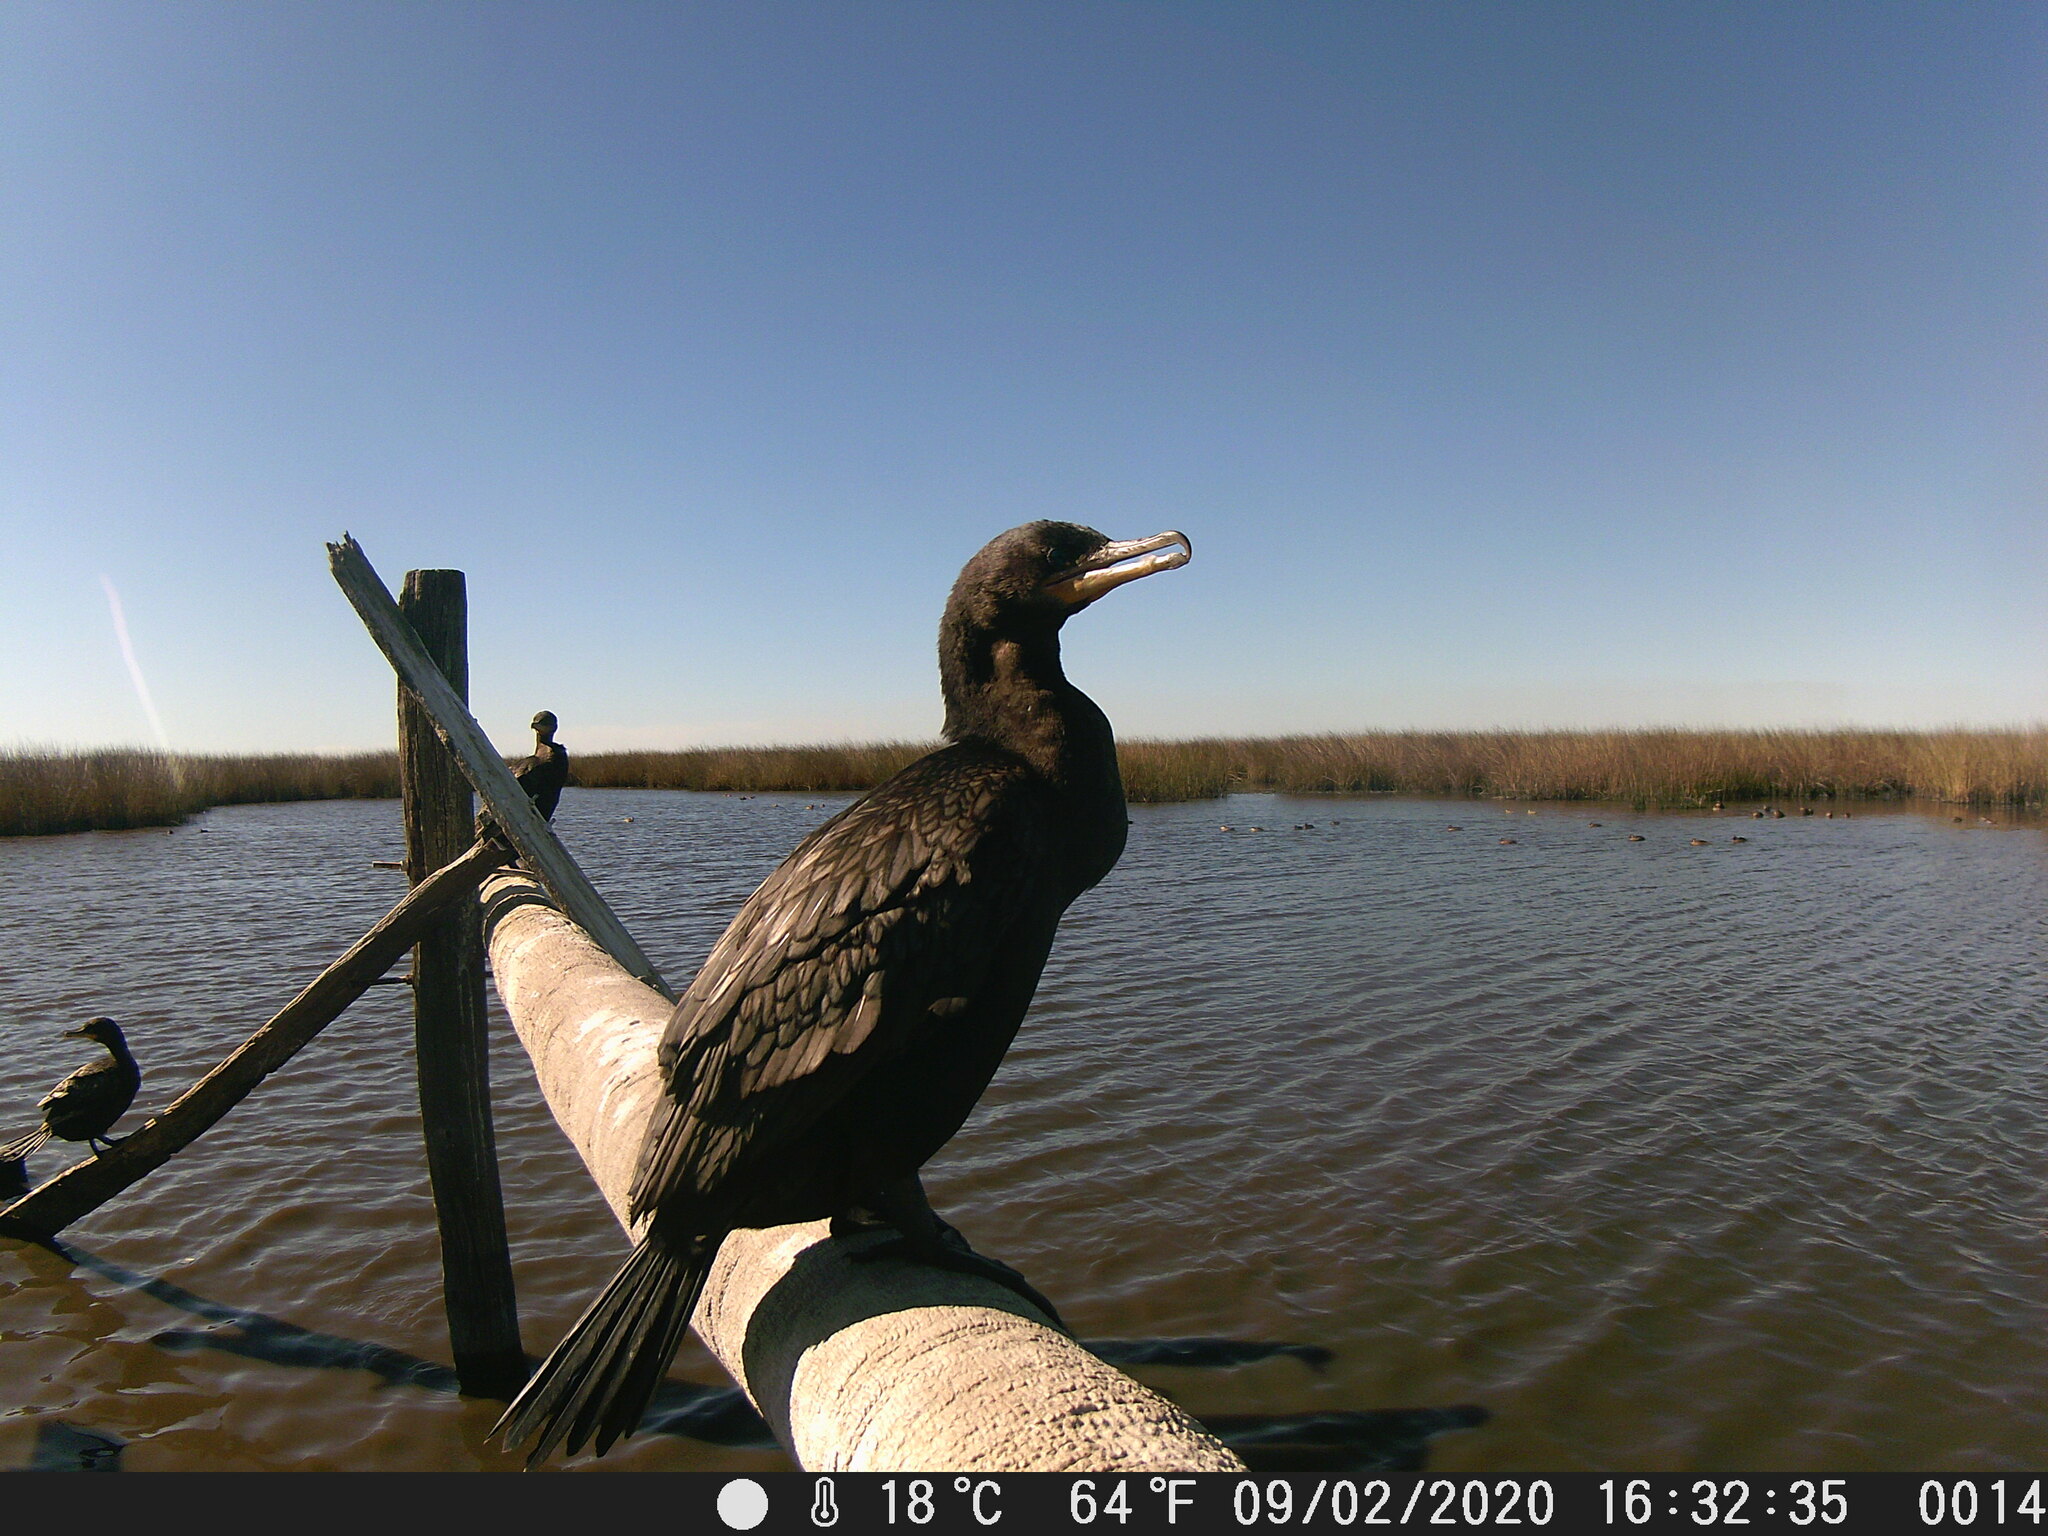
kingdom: Animalia
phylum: Chordata
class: Aves
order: Suliformes
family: Phalacrocoracidae
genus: Phalacrocorax
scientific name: Phalacrocorax brasilianus
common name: Neotropic cormorant
